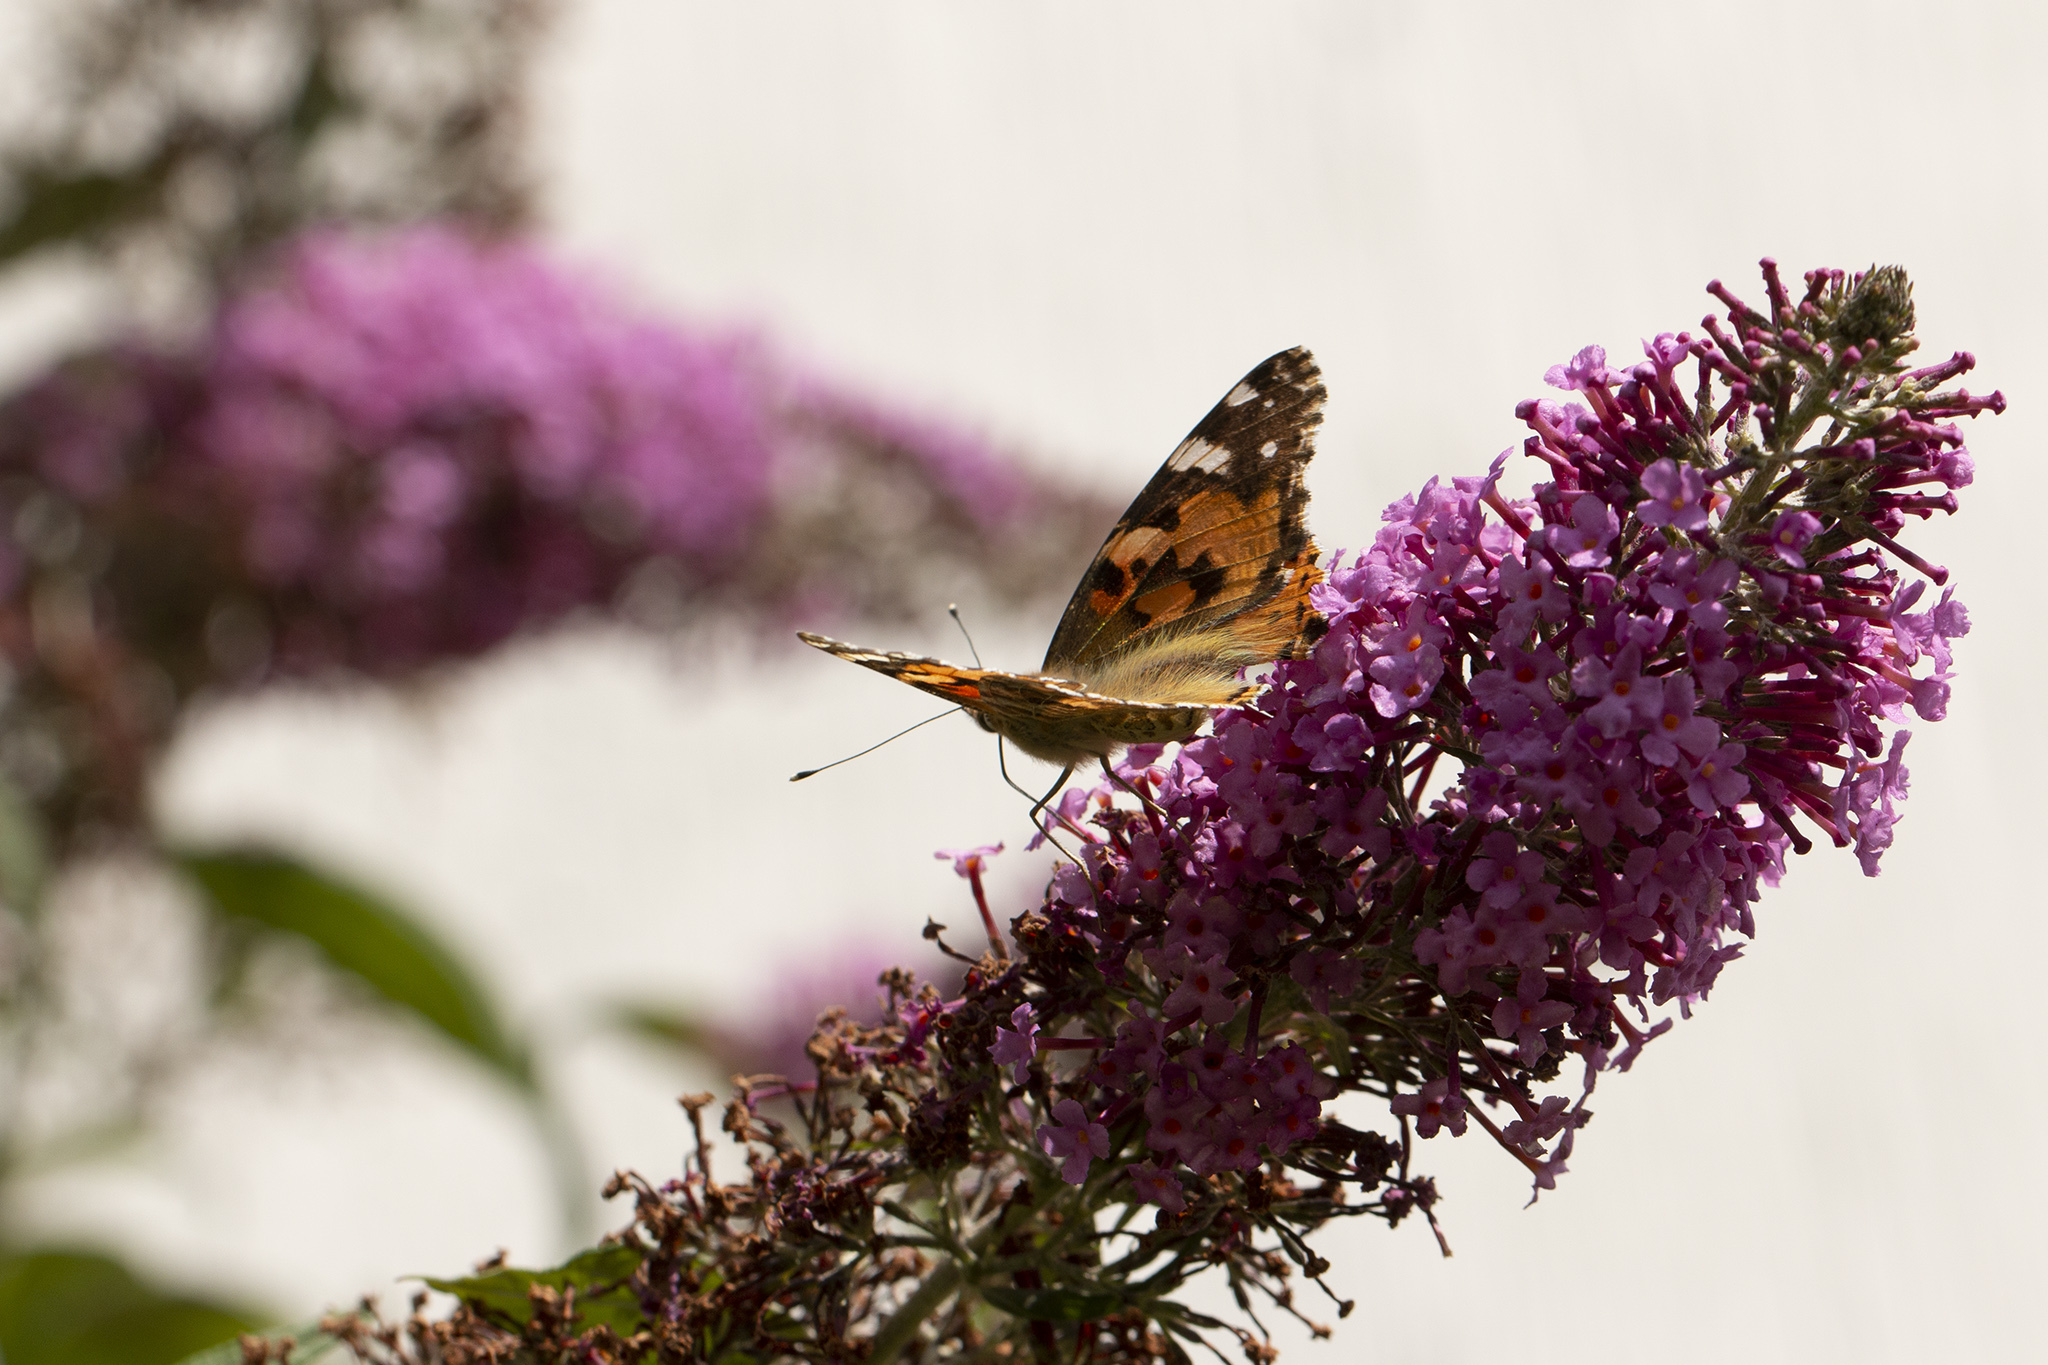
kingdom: Animalia
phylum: Arthropoda
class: Insecta
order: Lepidoptera
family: Nymphalidae
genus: Vanessa
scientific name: Vanessa cardui
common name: Painted lady
